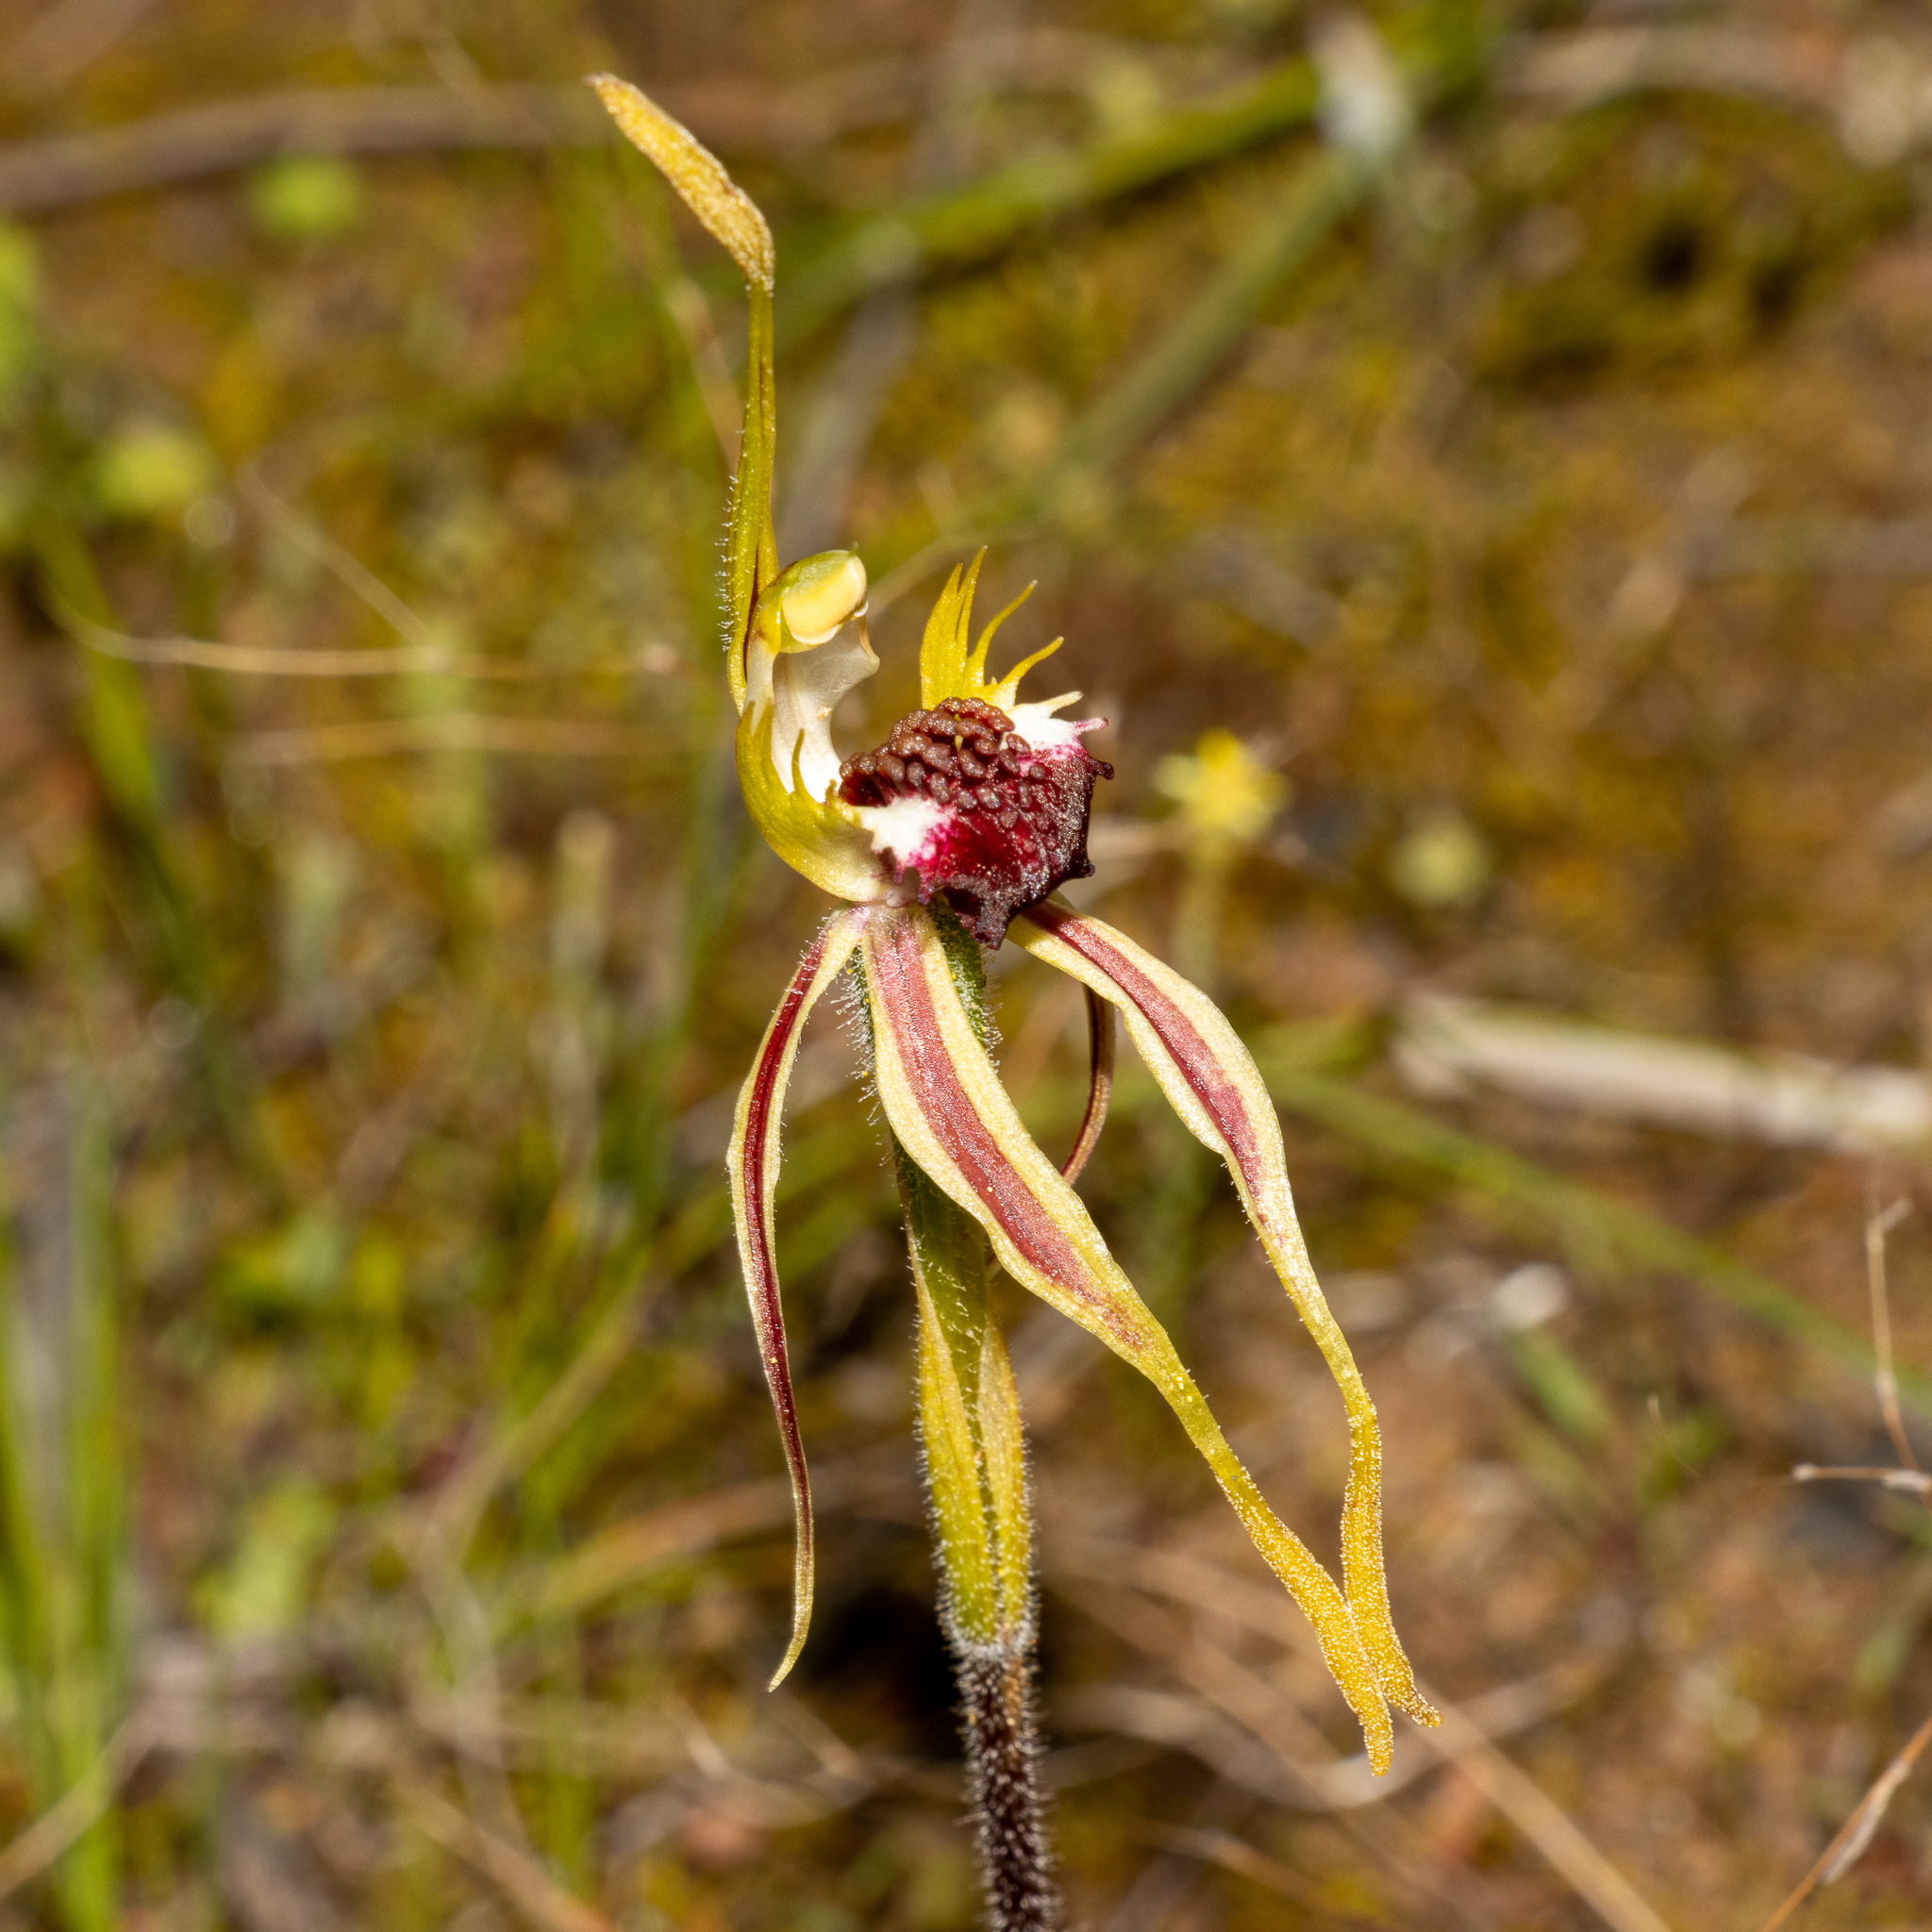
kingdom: Plantae
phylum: Tracheophyta
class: Liliopsida
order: Asparagales
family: Orchidaceae
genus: Caladenia
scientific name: Caladenia aurulenta
